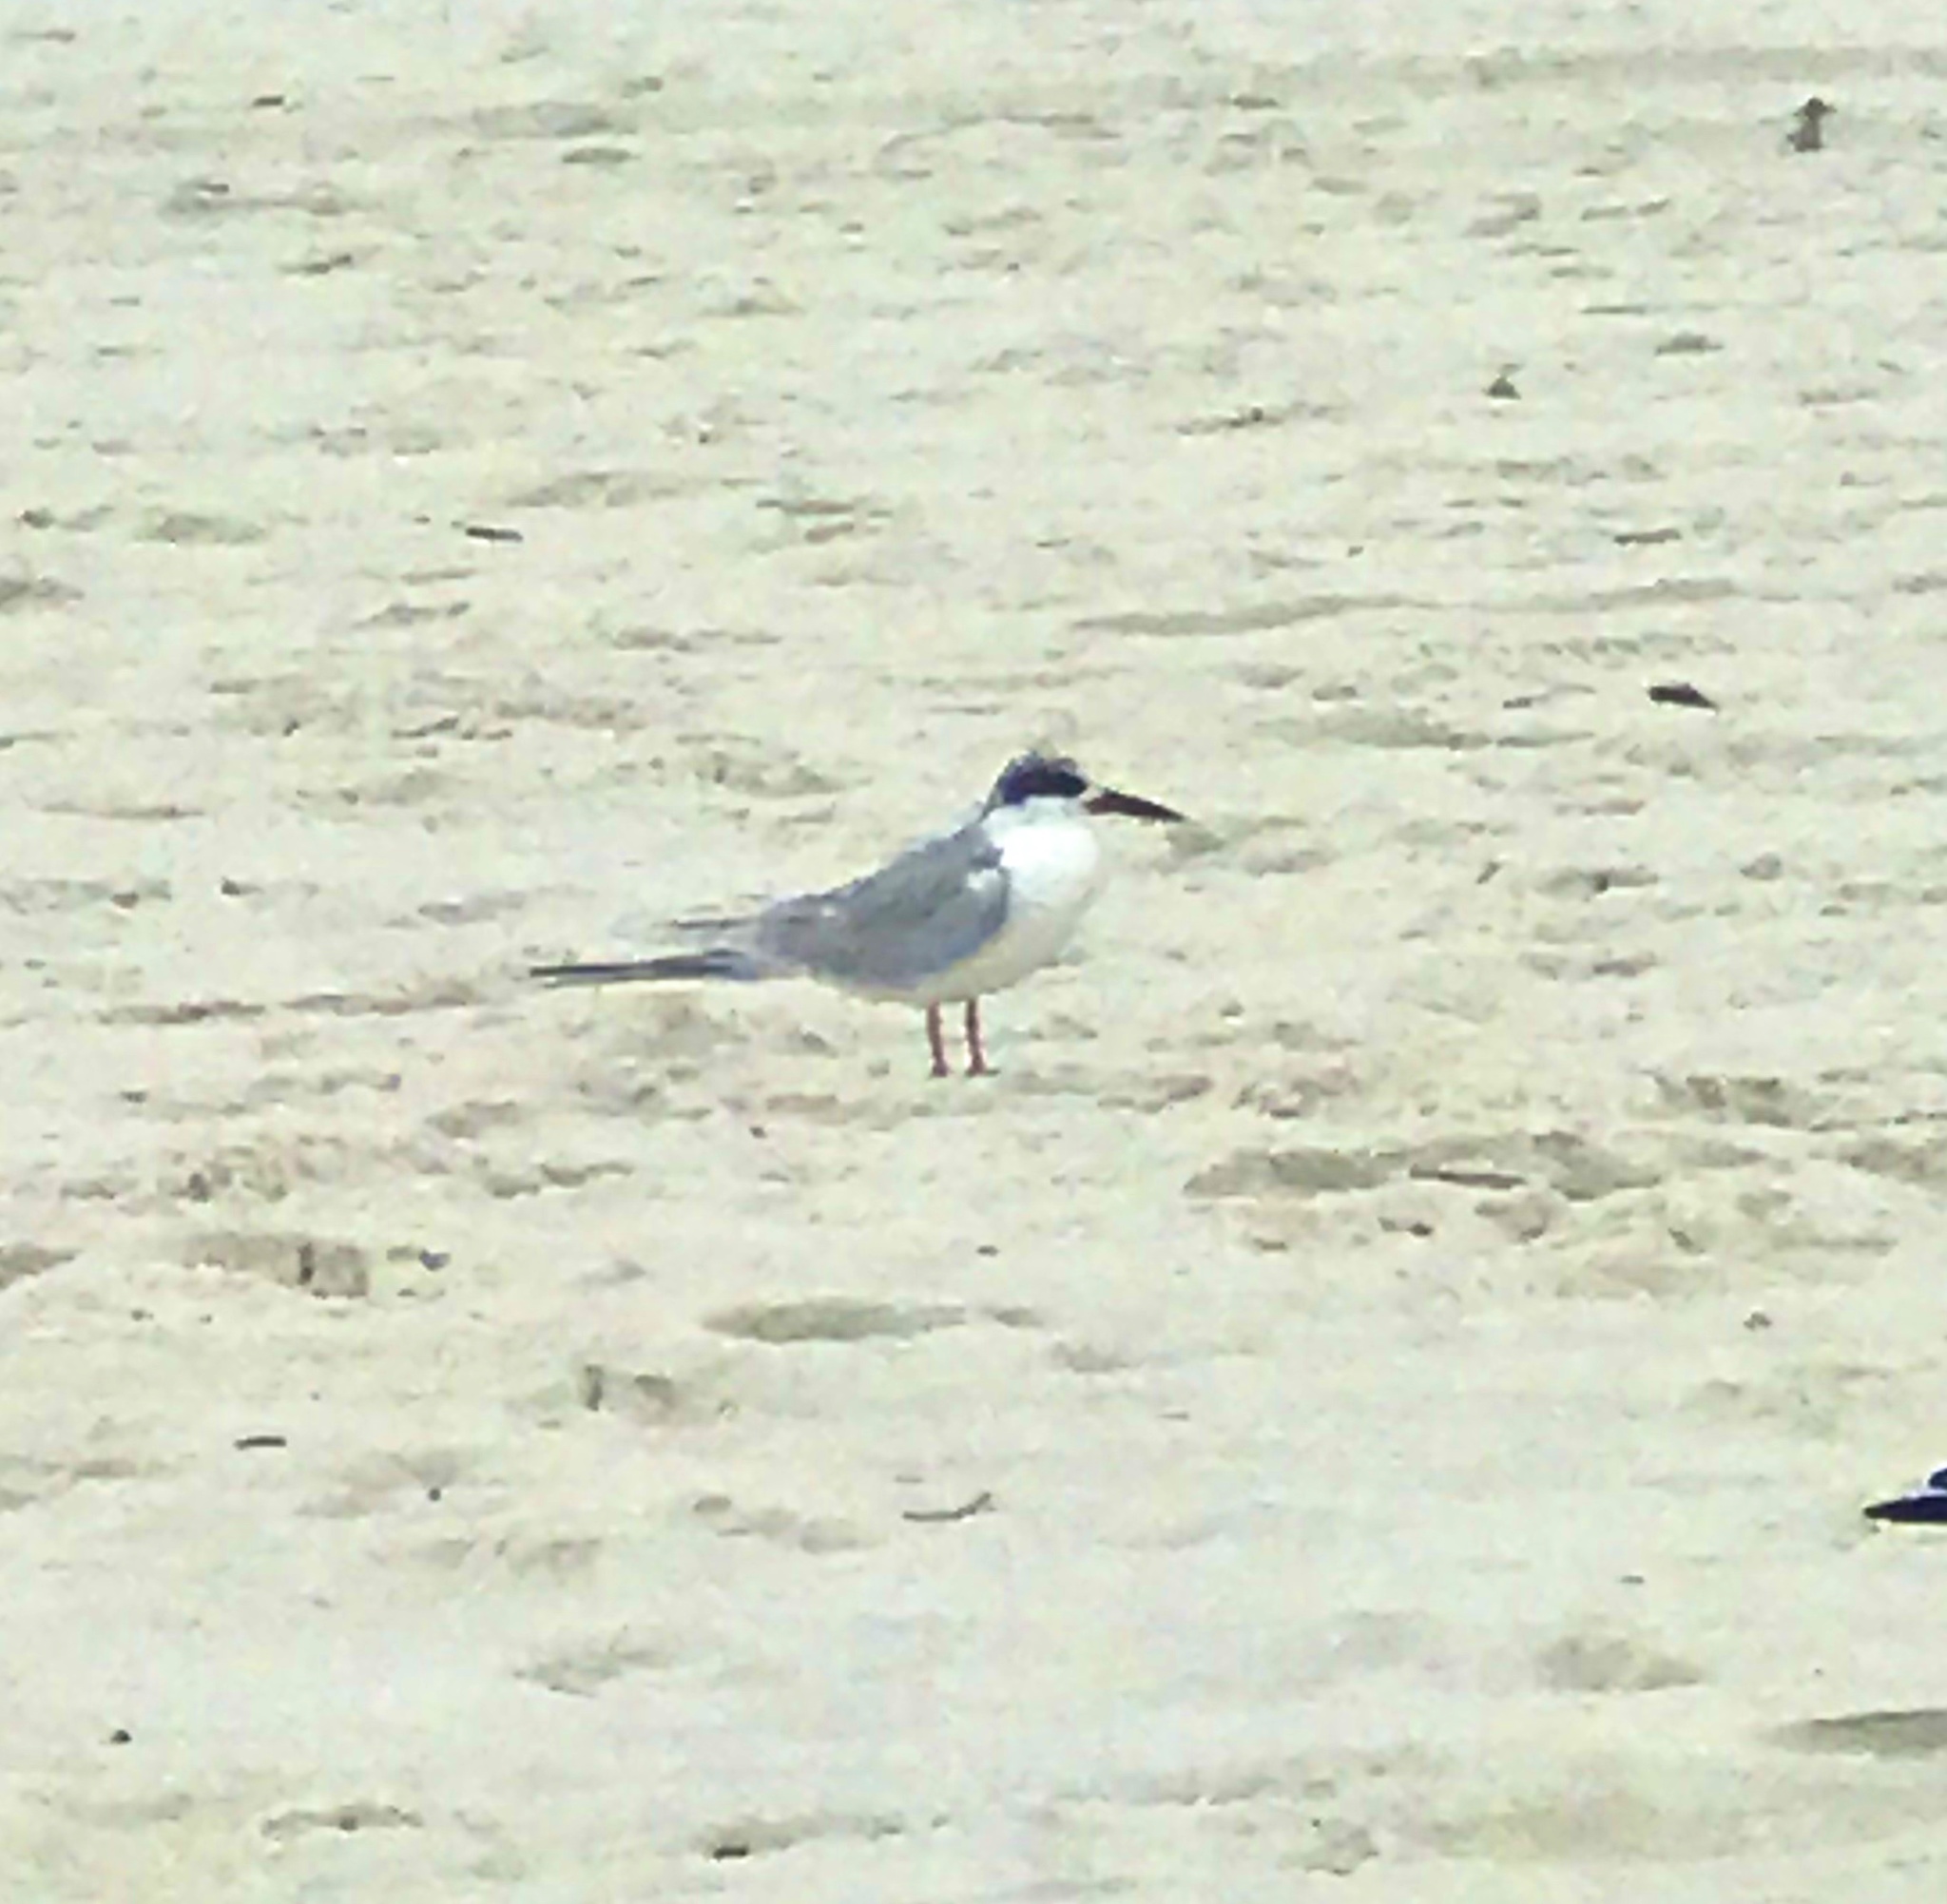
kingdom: Animalia
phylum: Chordata
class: Aves
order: Charadriiformes
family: Laridae
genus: Sterna
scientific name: Sterna forsteri
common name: Forster's tern
